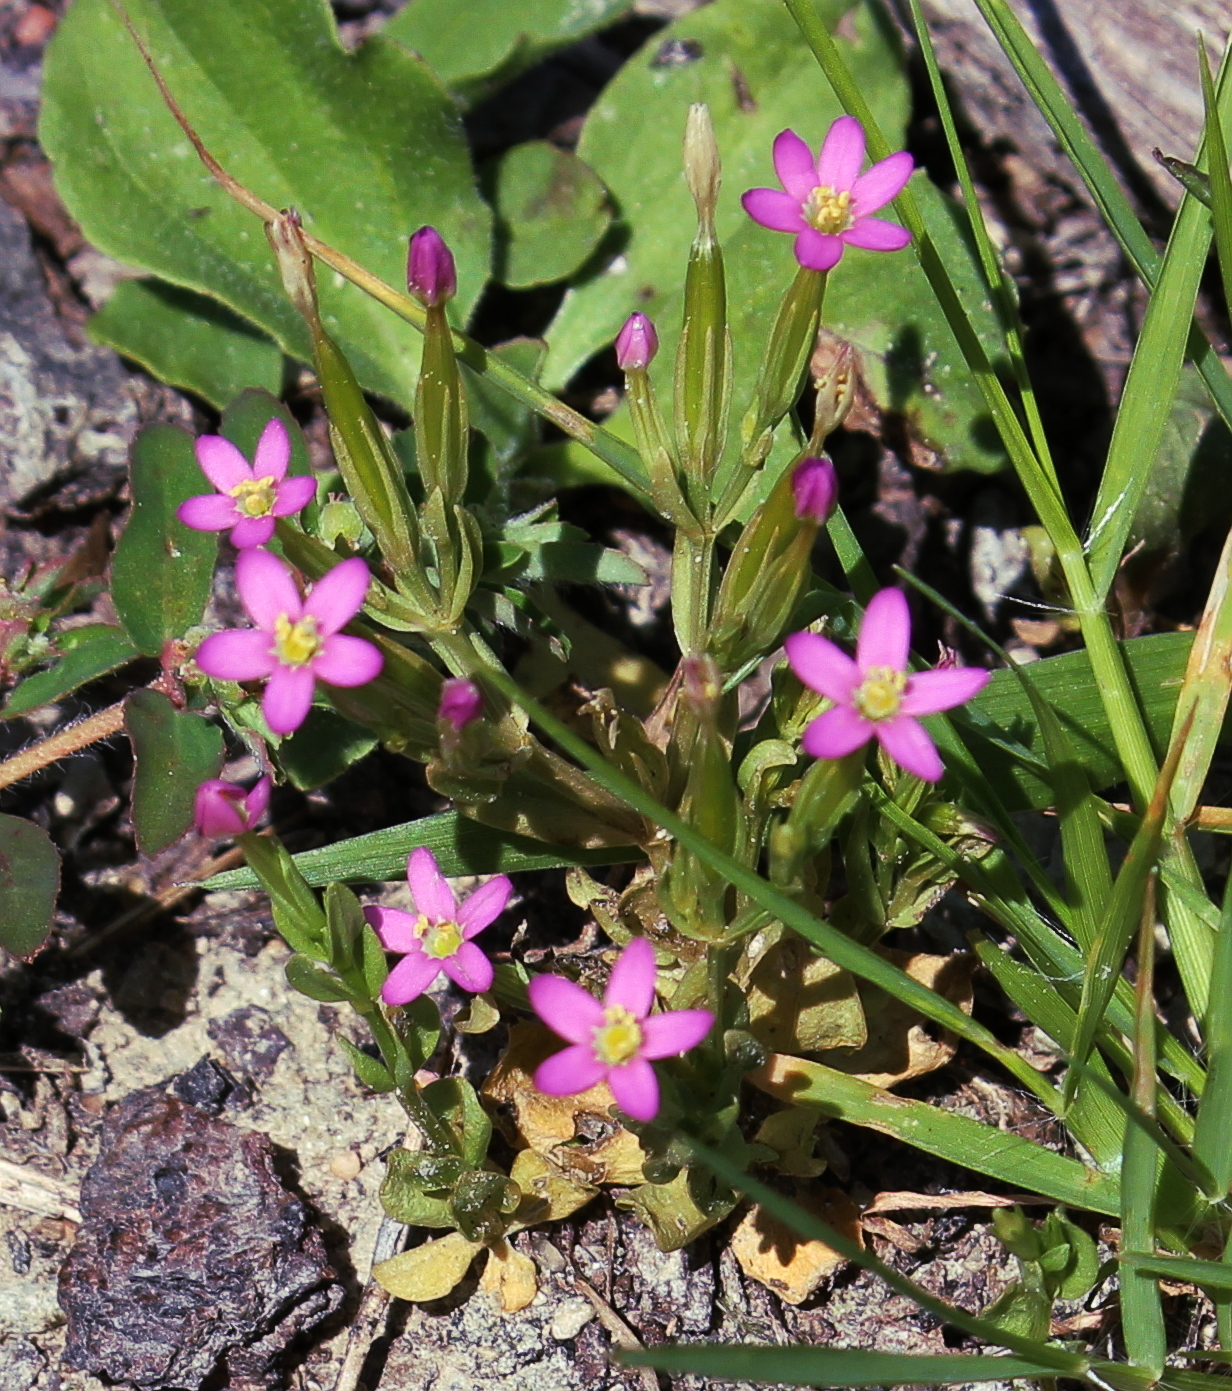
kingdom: Plantae
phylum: Tracheophyta
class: Magnoliopsida
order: Gentianales
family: Gentianaceae
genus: Centaurium
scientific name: Centaurium pulchellum
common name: Lesser centaury
